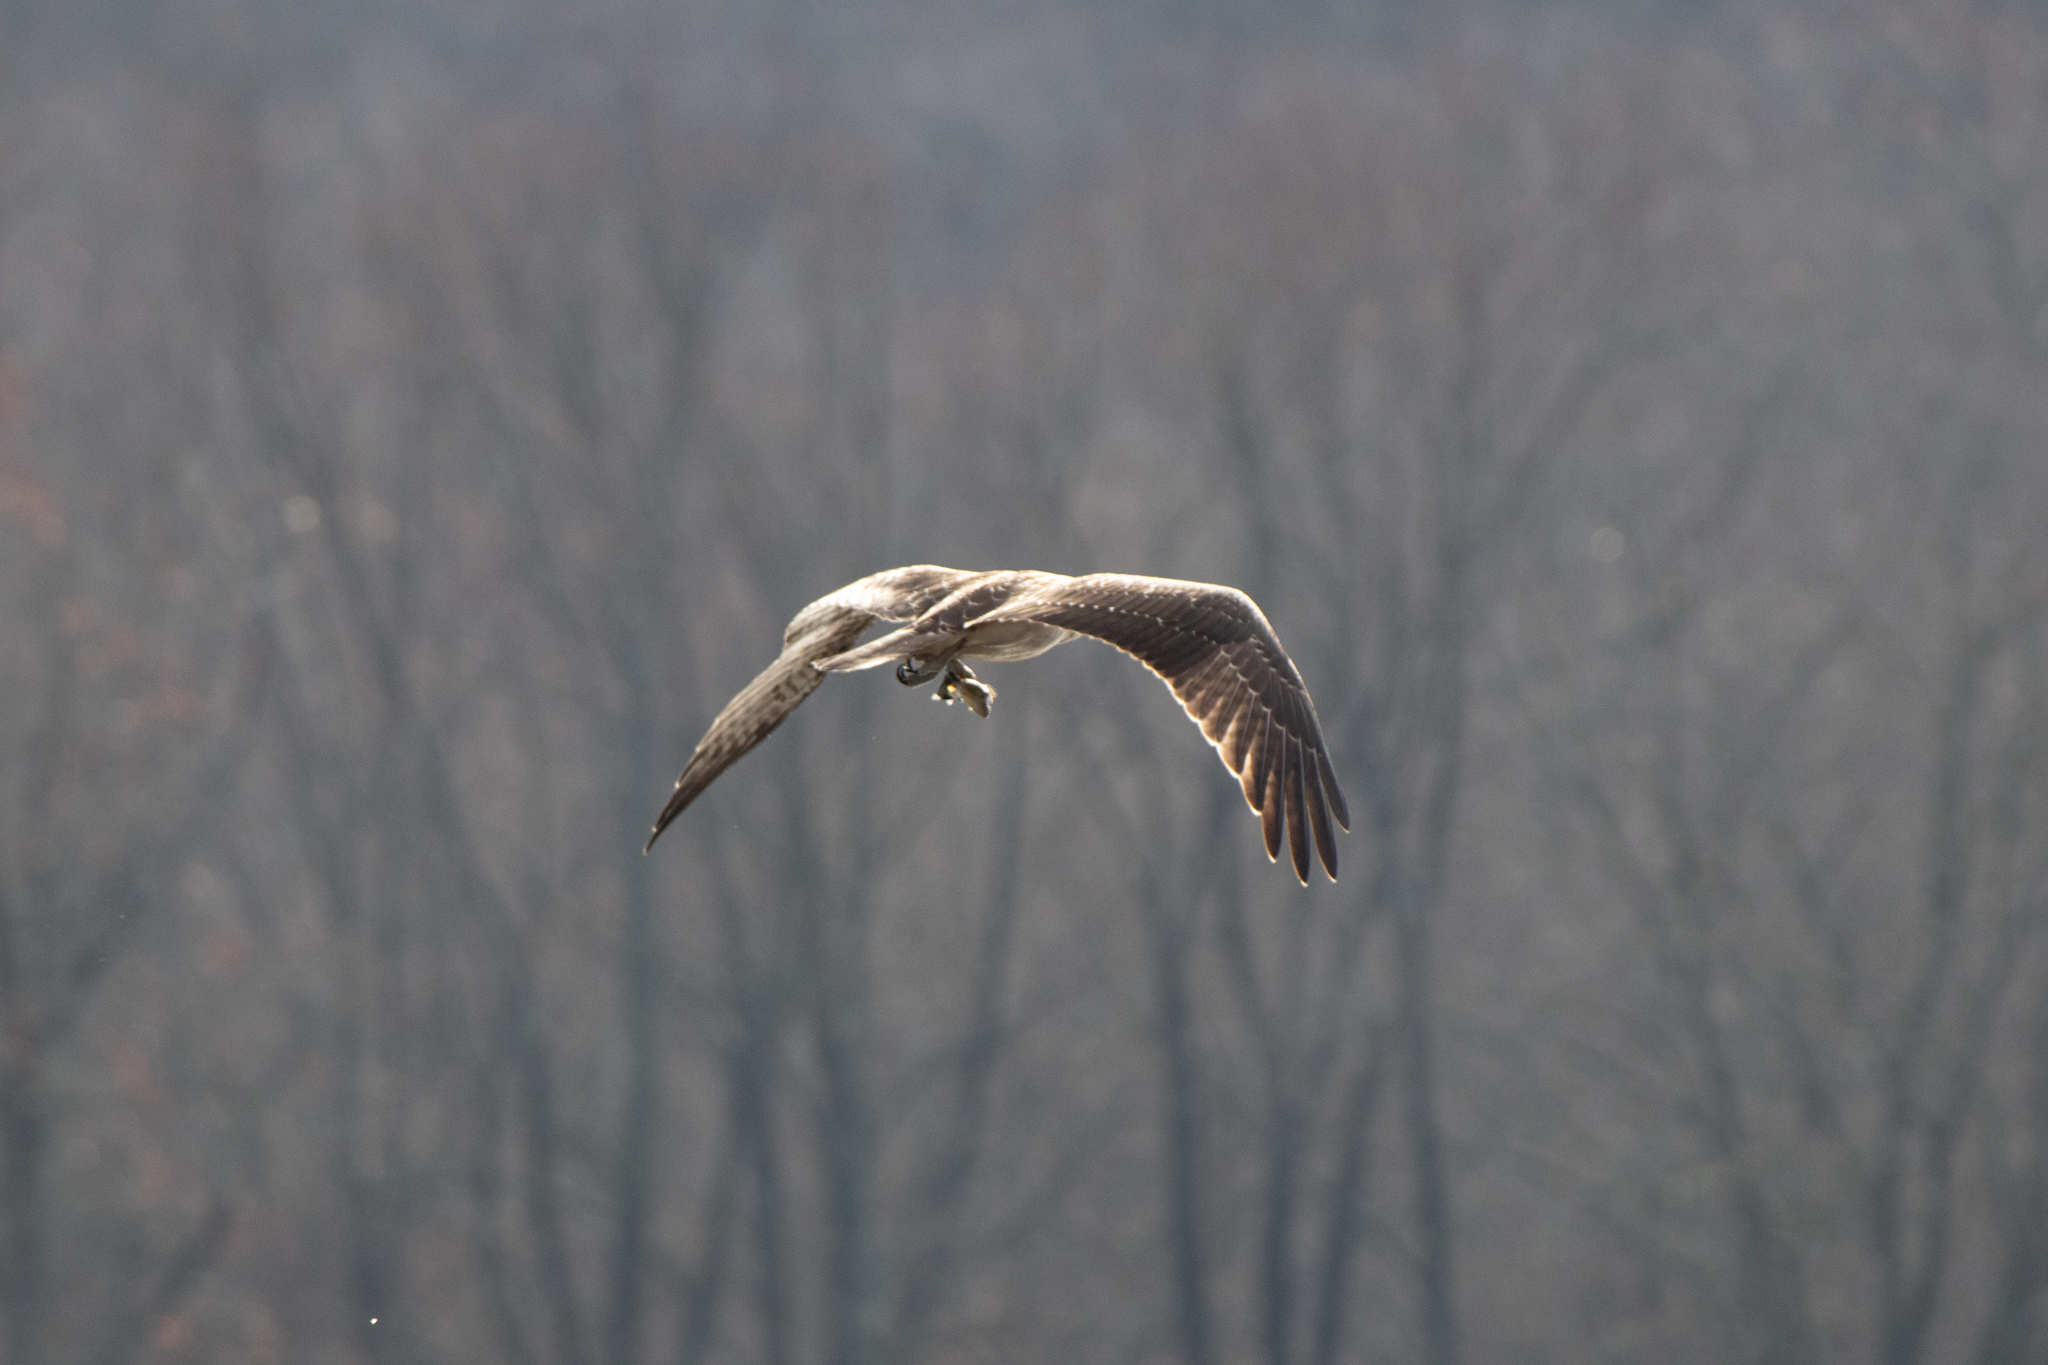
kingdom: Animalia
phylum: Chordata
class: Aves
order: Accipitriformes
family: Pandionidae
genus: Pandion
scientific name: Pandion haliaetus
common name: Osprey
